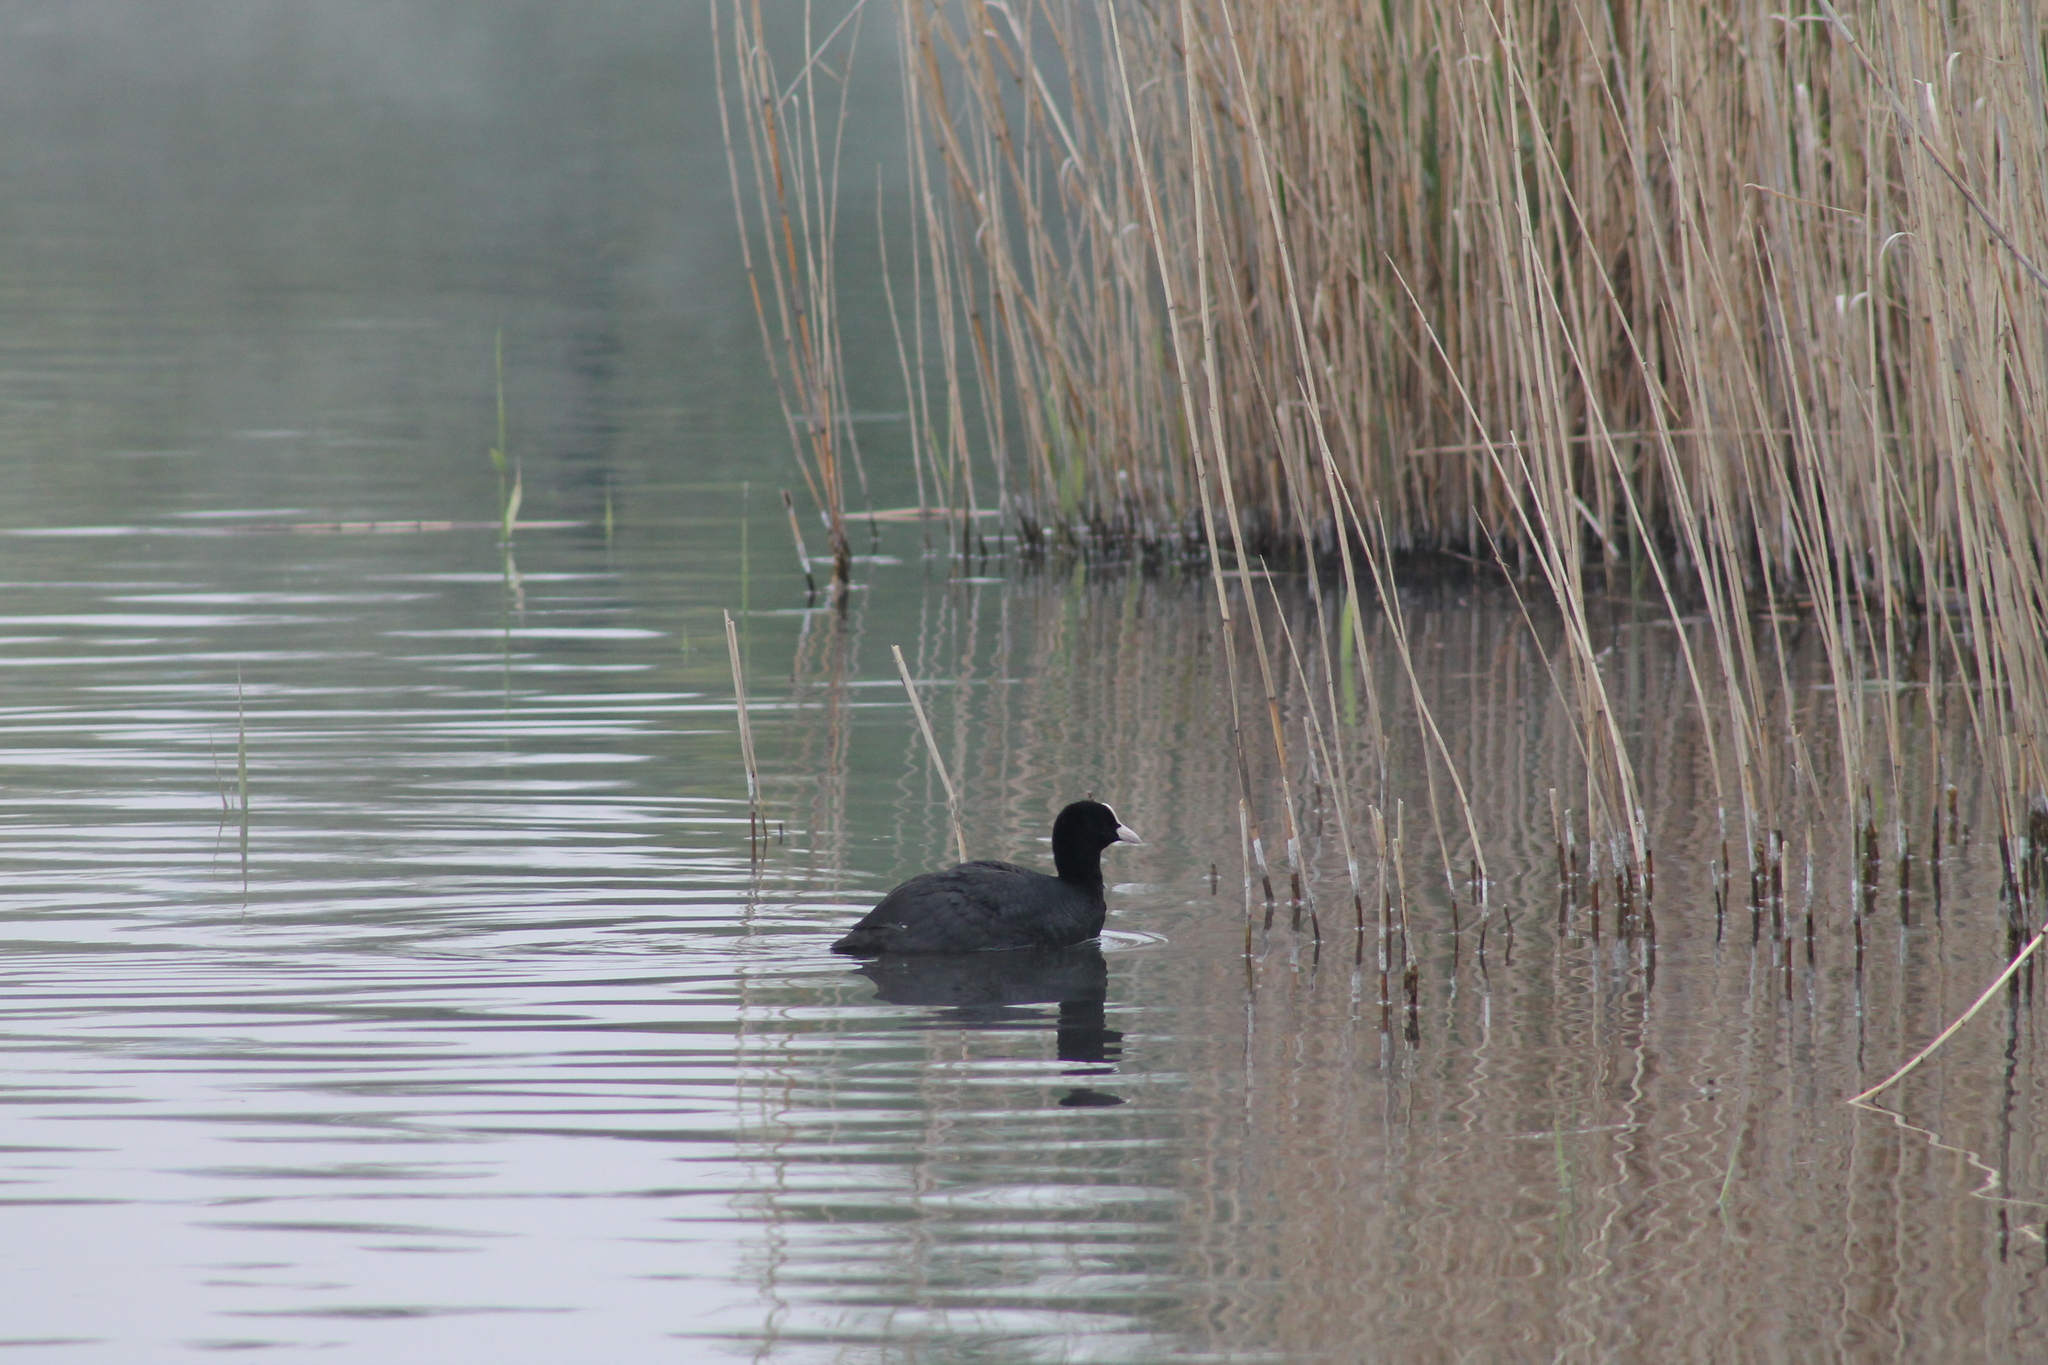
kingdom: Animalia
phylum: Chordata
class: Aves
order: Gruiformes
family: Rallidae
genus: Fulica
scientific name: Fulica atra
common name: Eurasian coot
